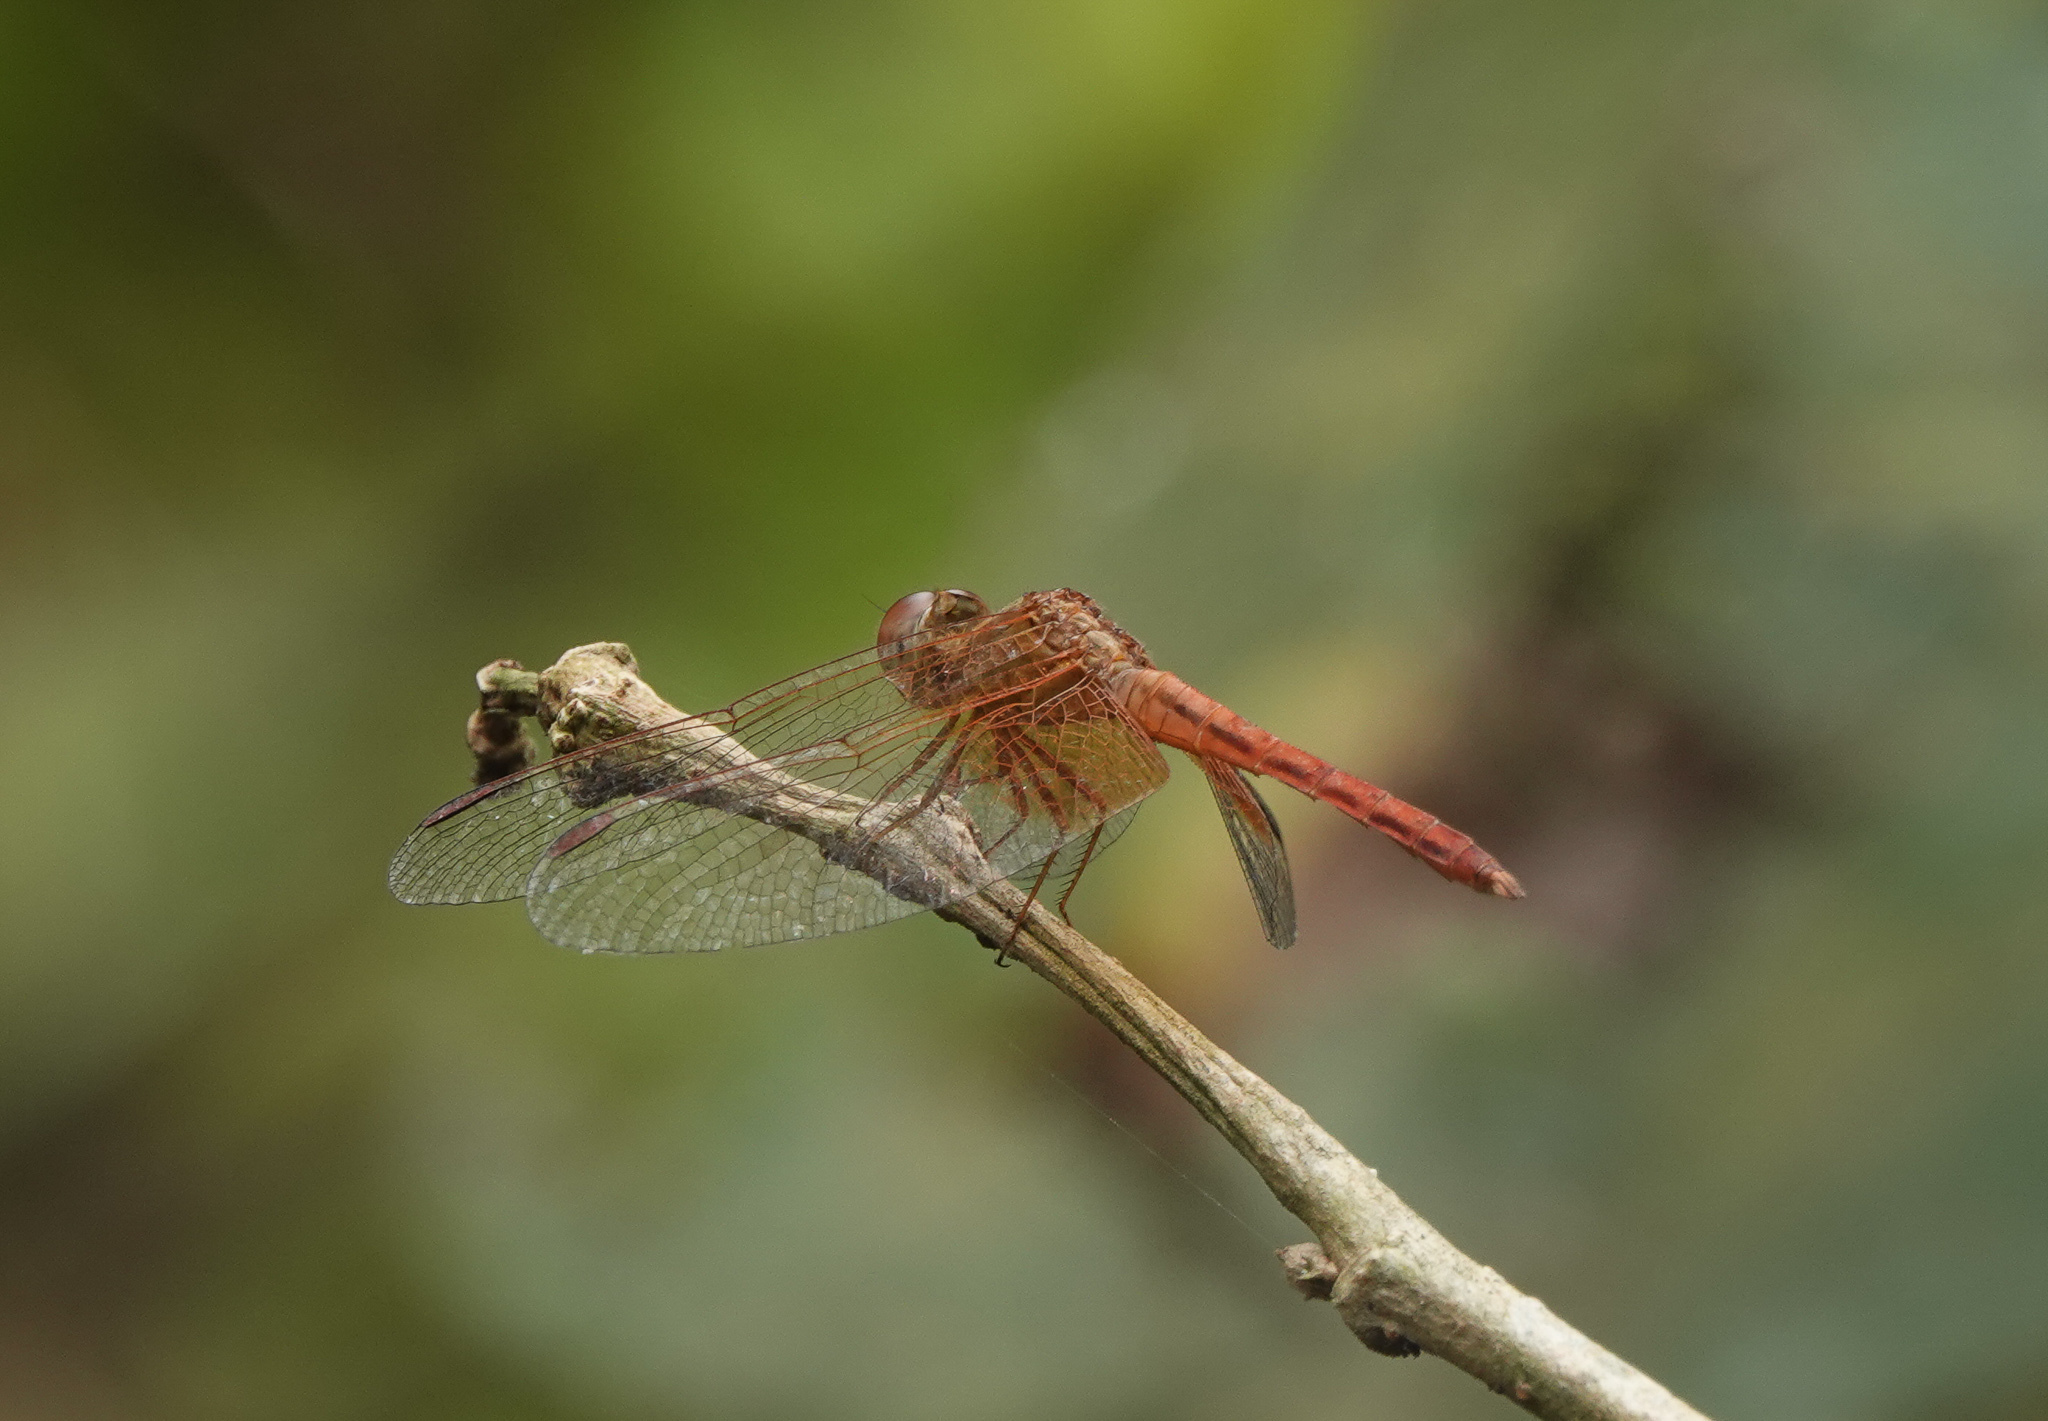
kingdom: Animalia
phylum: Arthropoda
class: Insecta
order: Odonata
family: Libellulidae
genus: Neurothemis
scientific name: Neurothemis intermedia
